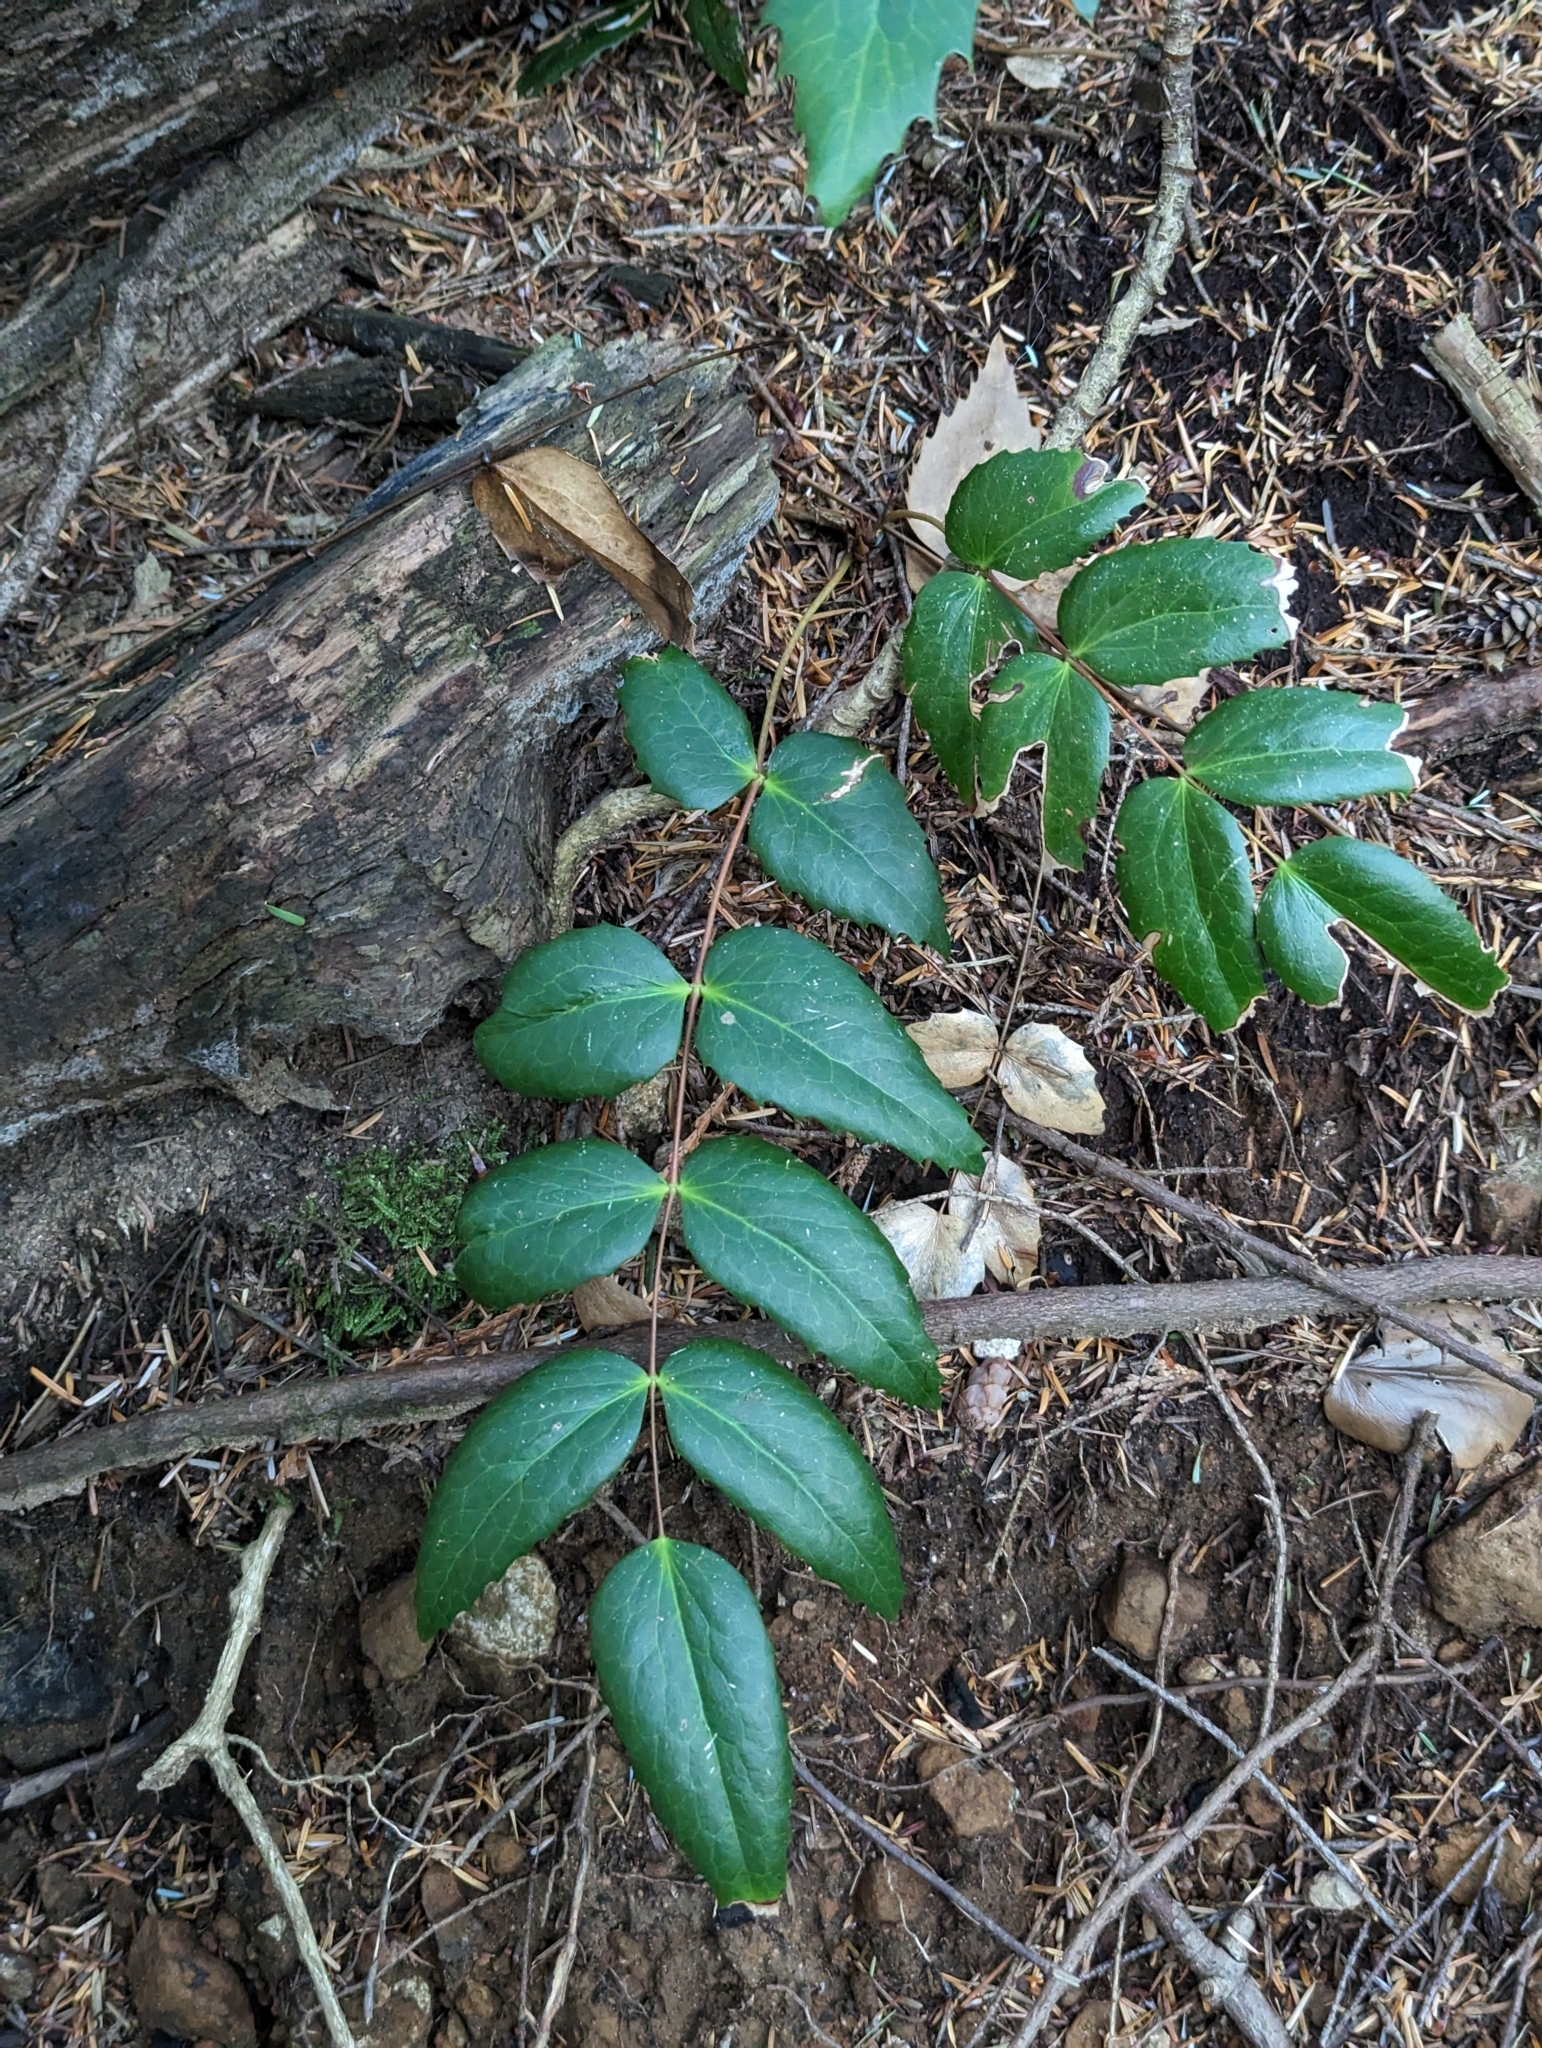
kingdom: Plantae
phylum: Tracheophyta
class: Magnoliopsida
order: Ranunculales
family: Berberidaceae
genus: Mahonia
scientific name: Mahonia nervosa
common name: Cascade oregon-grape
